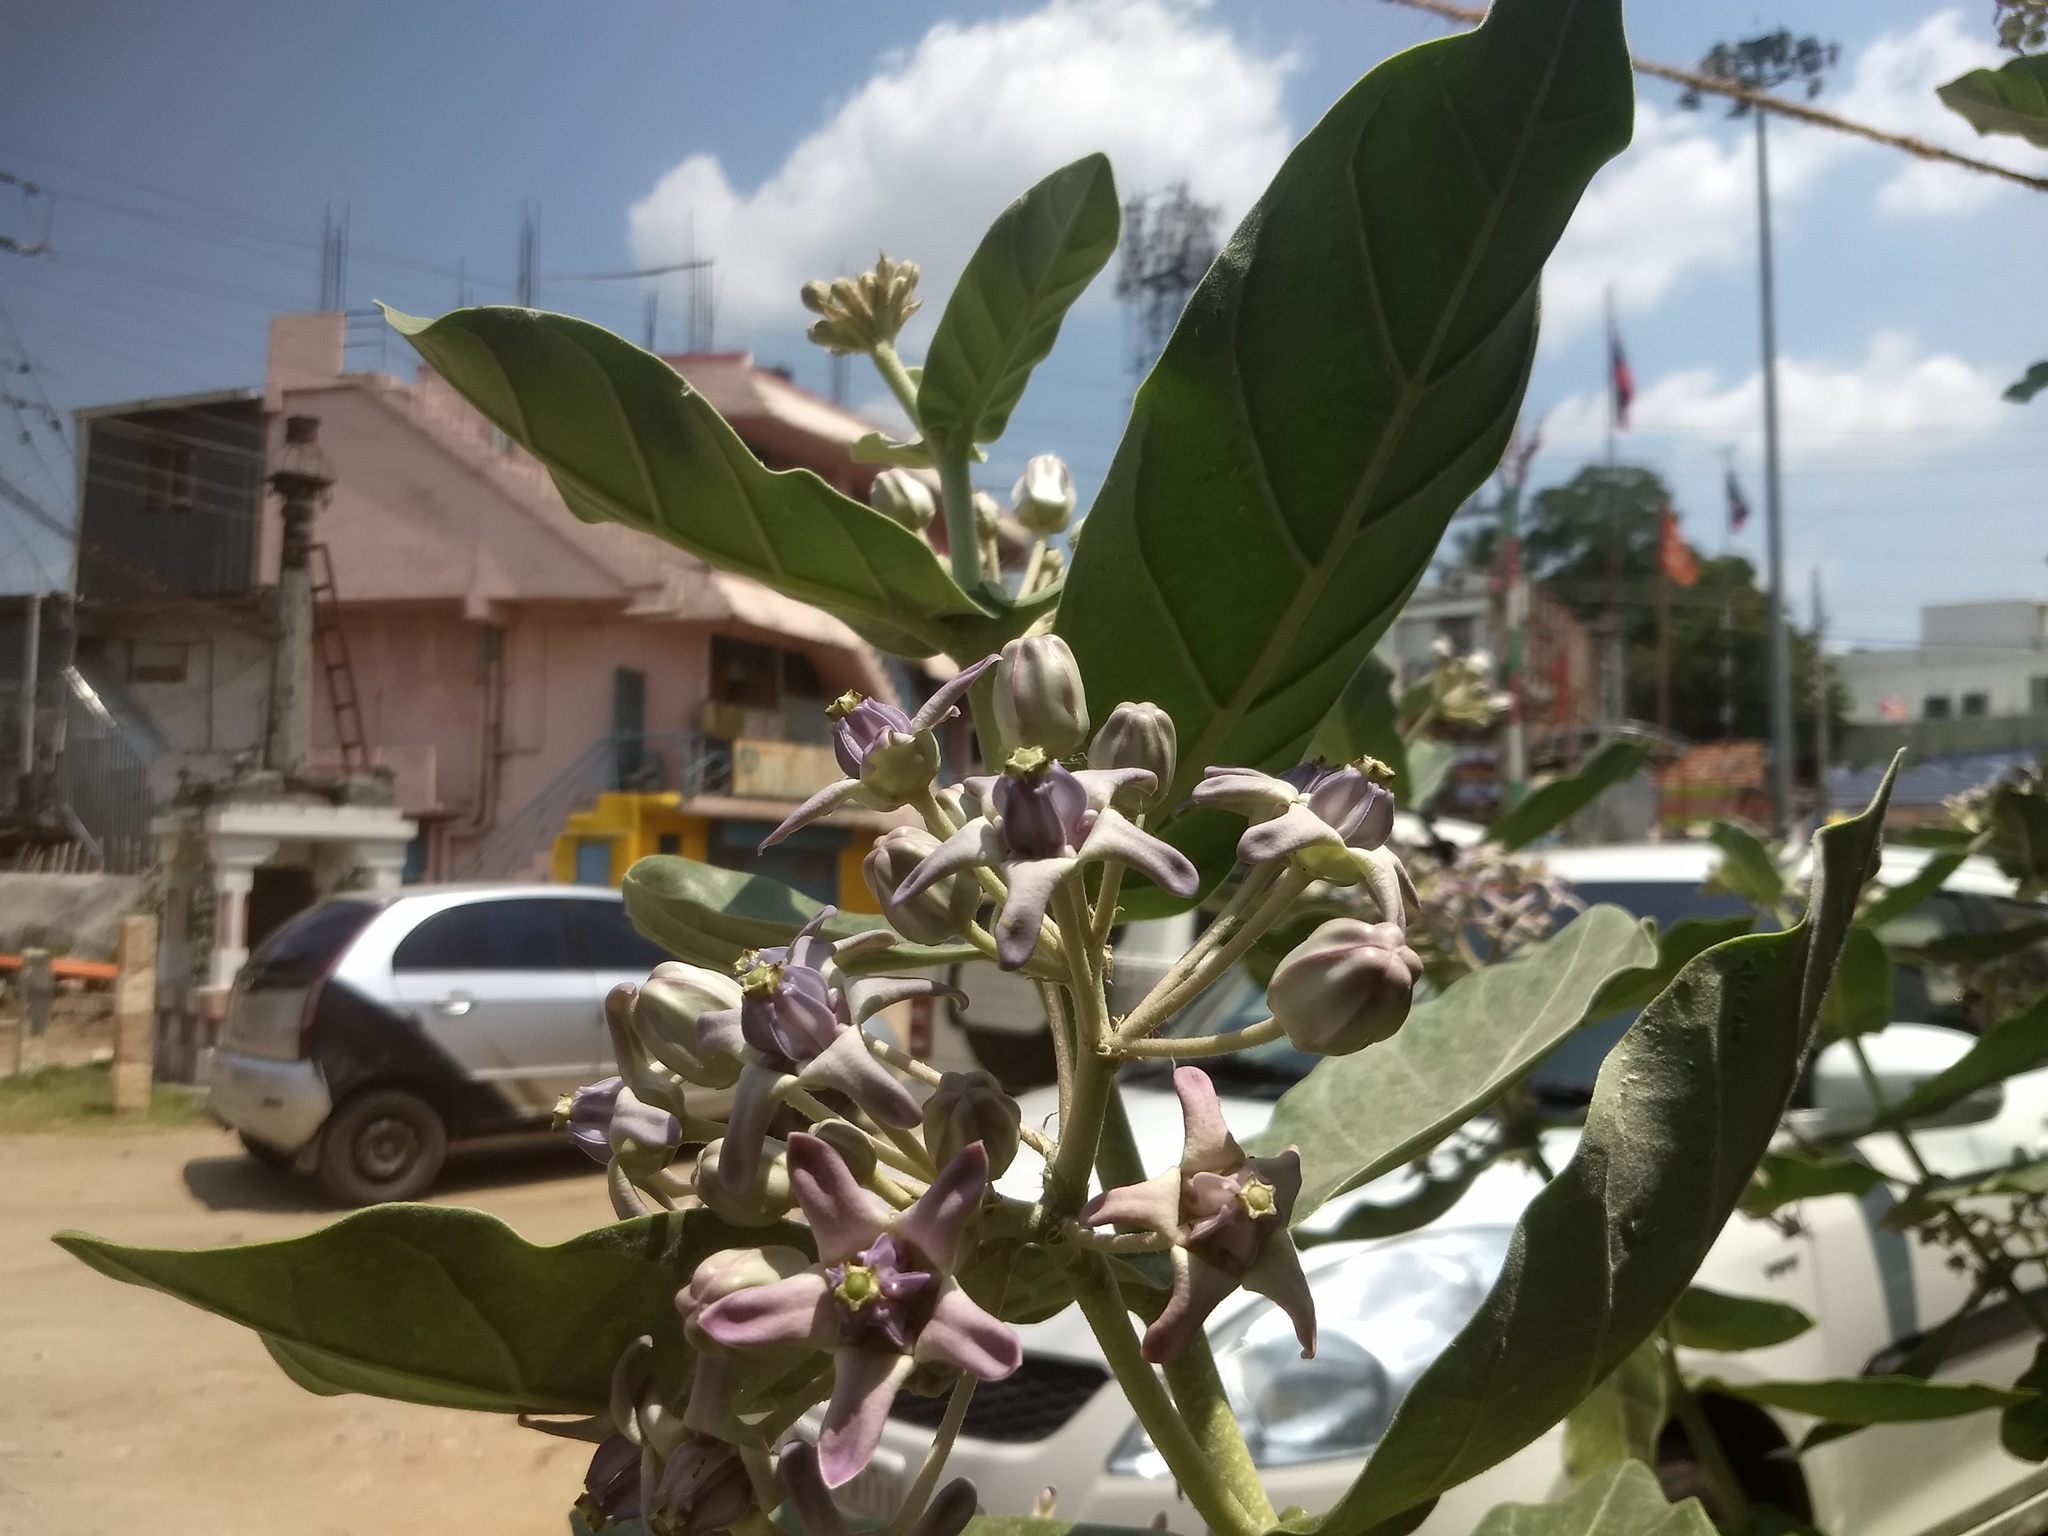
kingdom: Plantae
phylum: Tracheophyta
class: Magnoliopsida
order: Gentianales
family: Apocynaceae
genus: Calotropis
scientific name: Calotropis gigantea
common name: Crown flower
